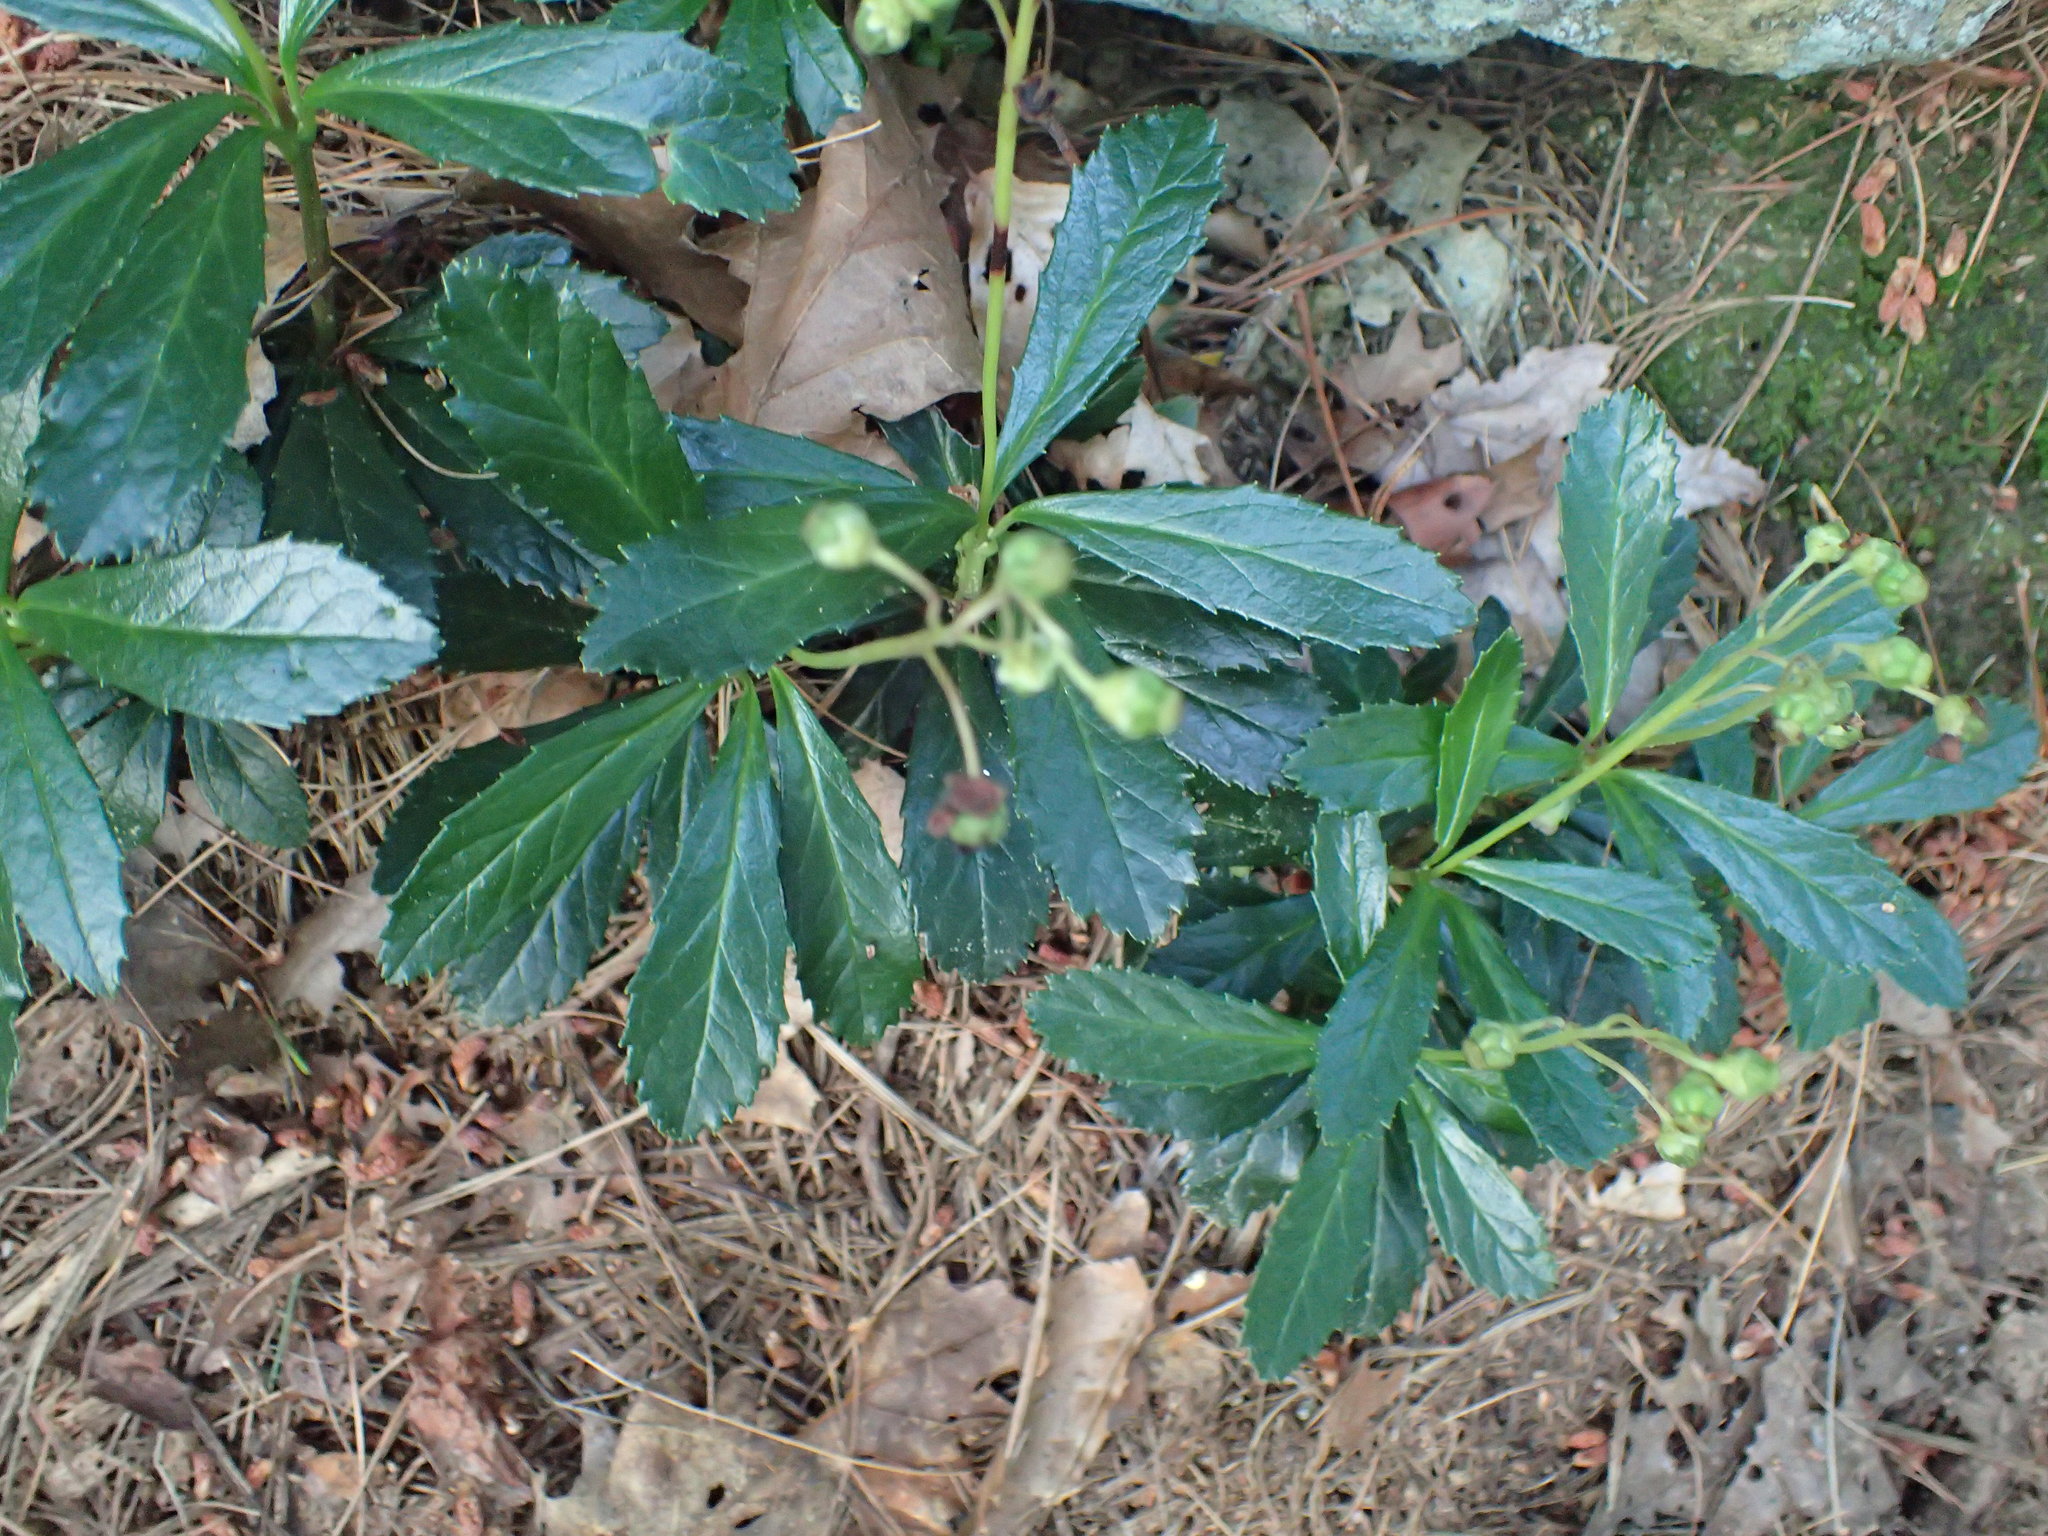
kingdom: Plantae
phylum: Tracheophyta
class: Magnoliopsida
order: Ericales
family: Ericaceae
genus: Chimaphila
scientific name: Chimaphila umbellata
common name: Pipsissewa
